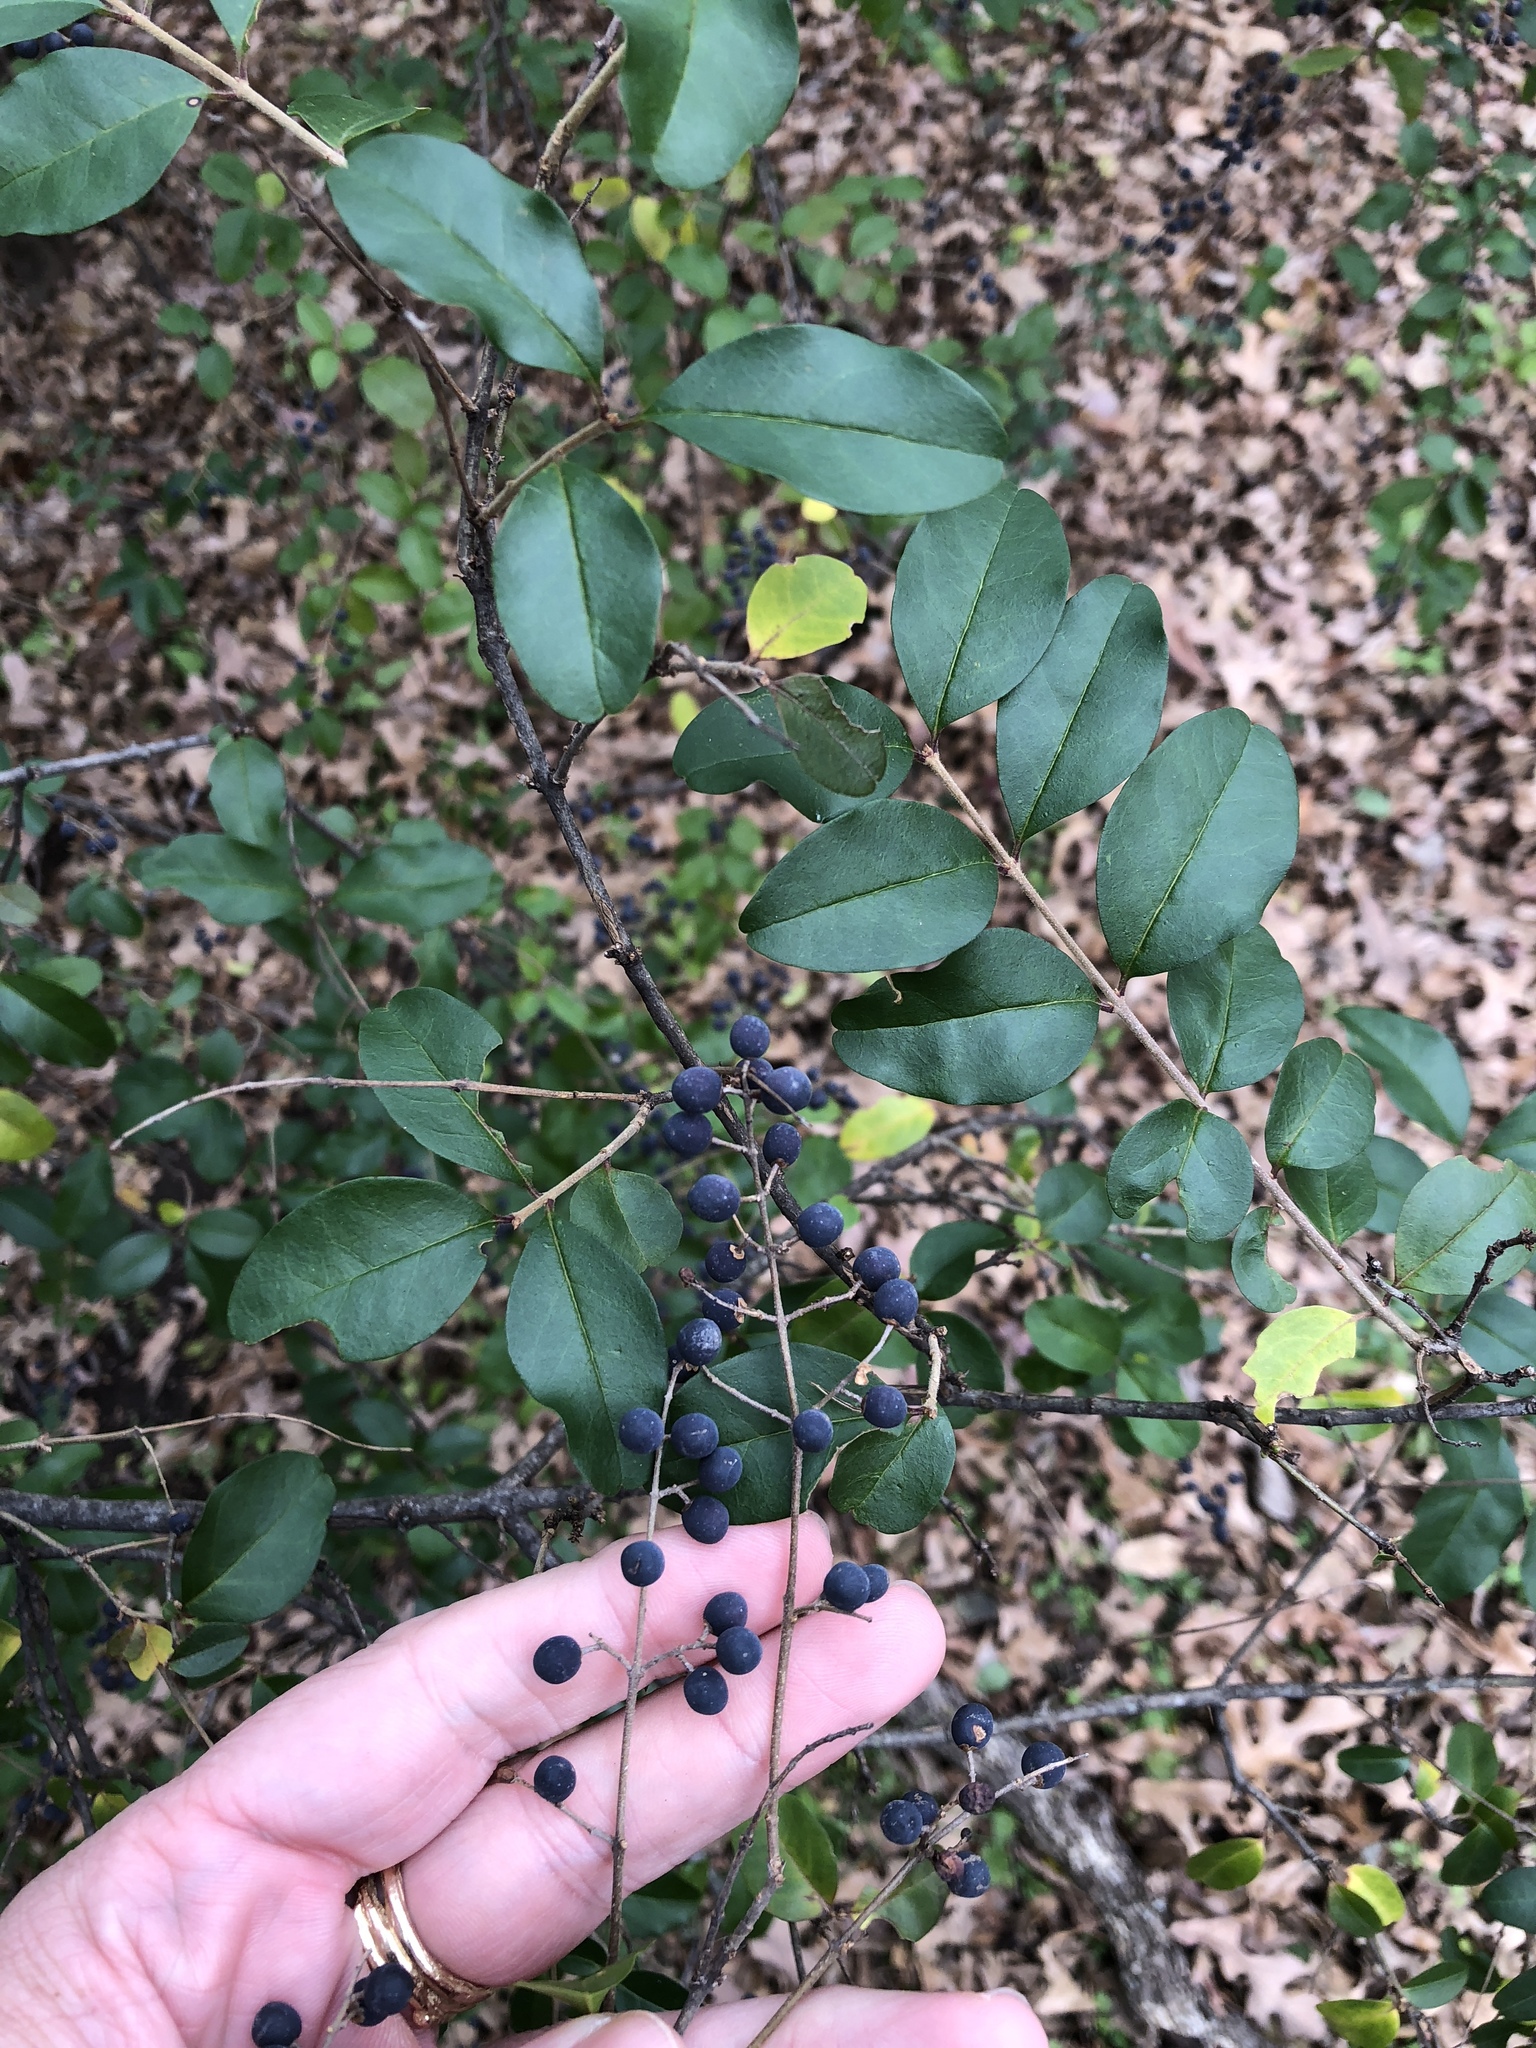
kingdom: Plantae
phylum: Tracheophyta
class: Magnoliopsida
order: Lamiales
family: Oleaceae
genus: Ligustrum
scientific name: Ligustrum sinense
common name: Chinese privet
